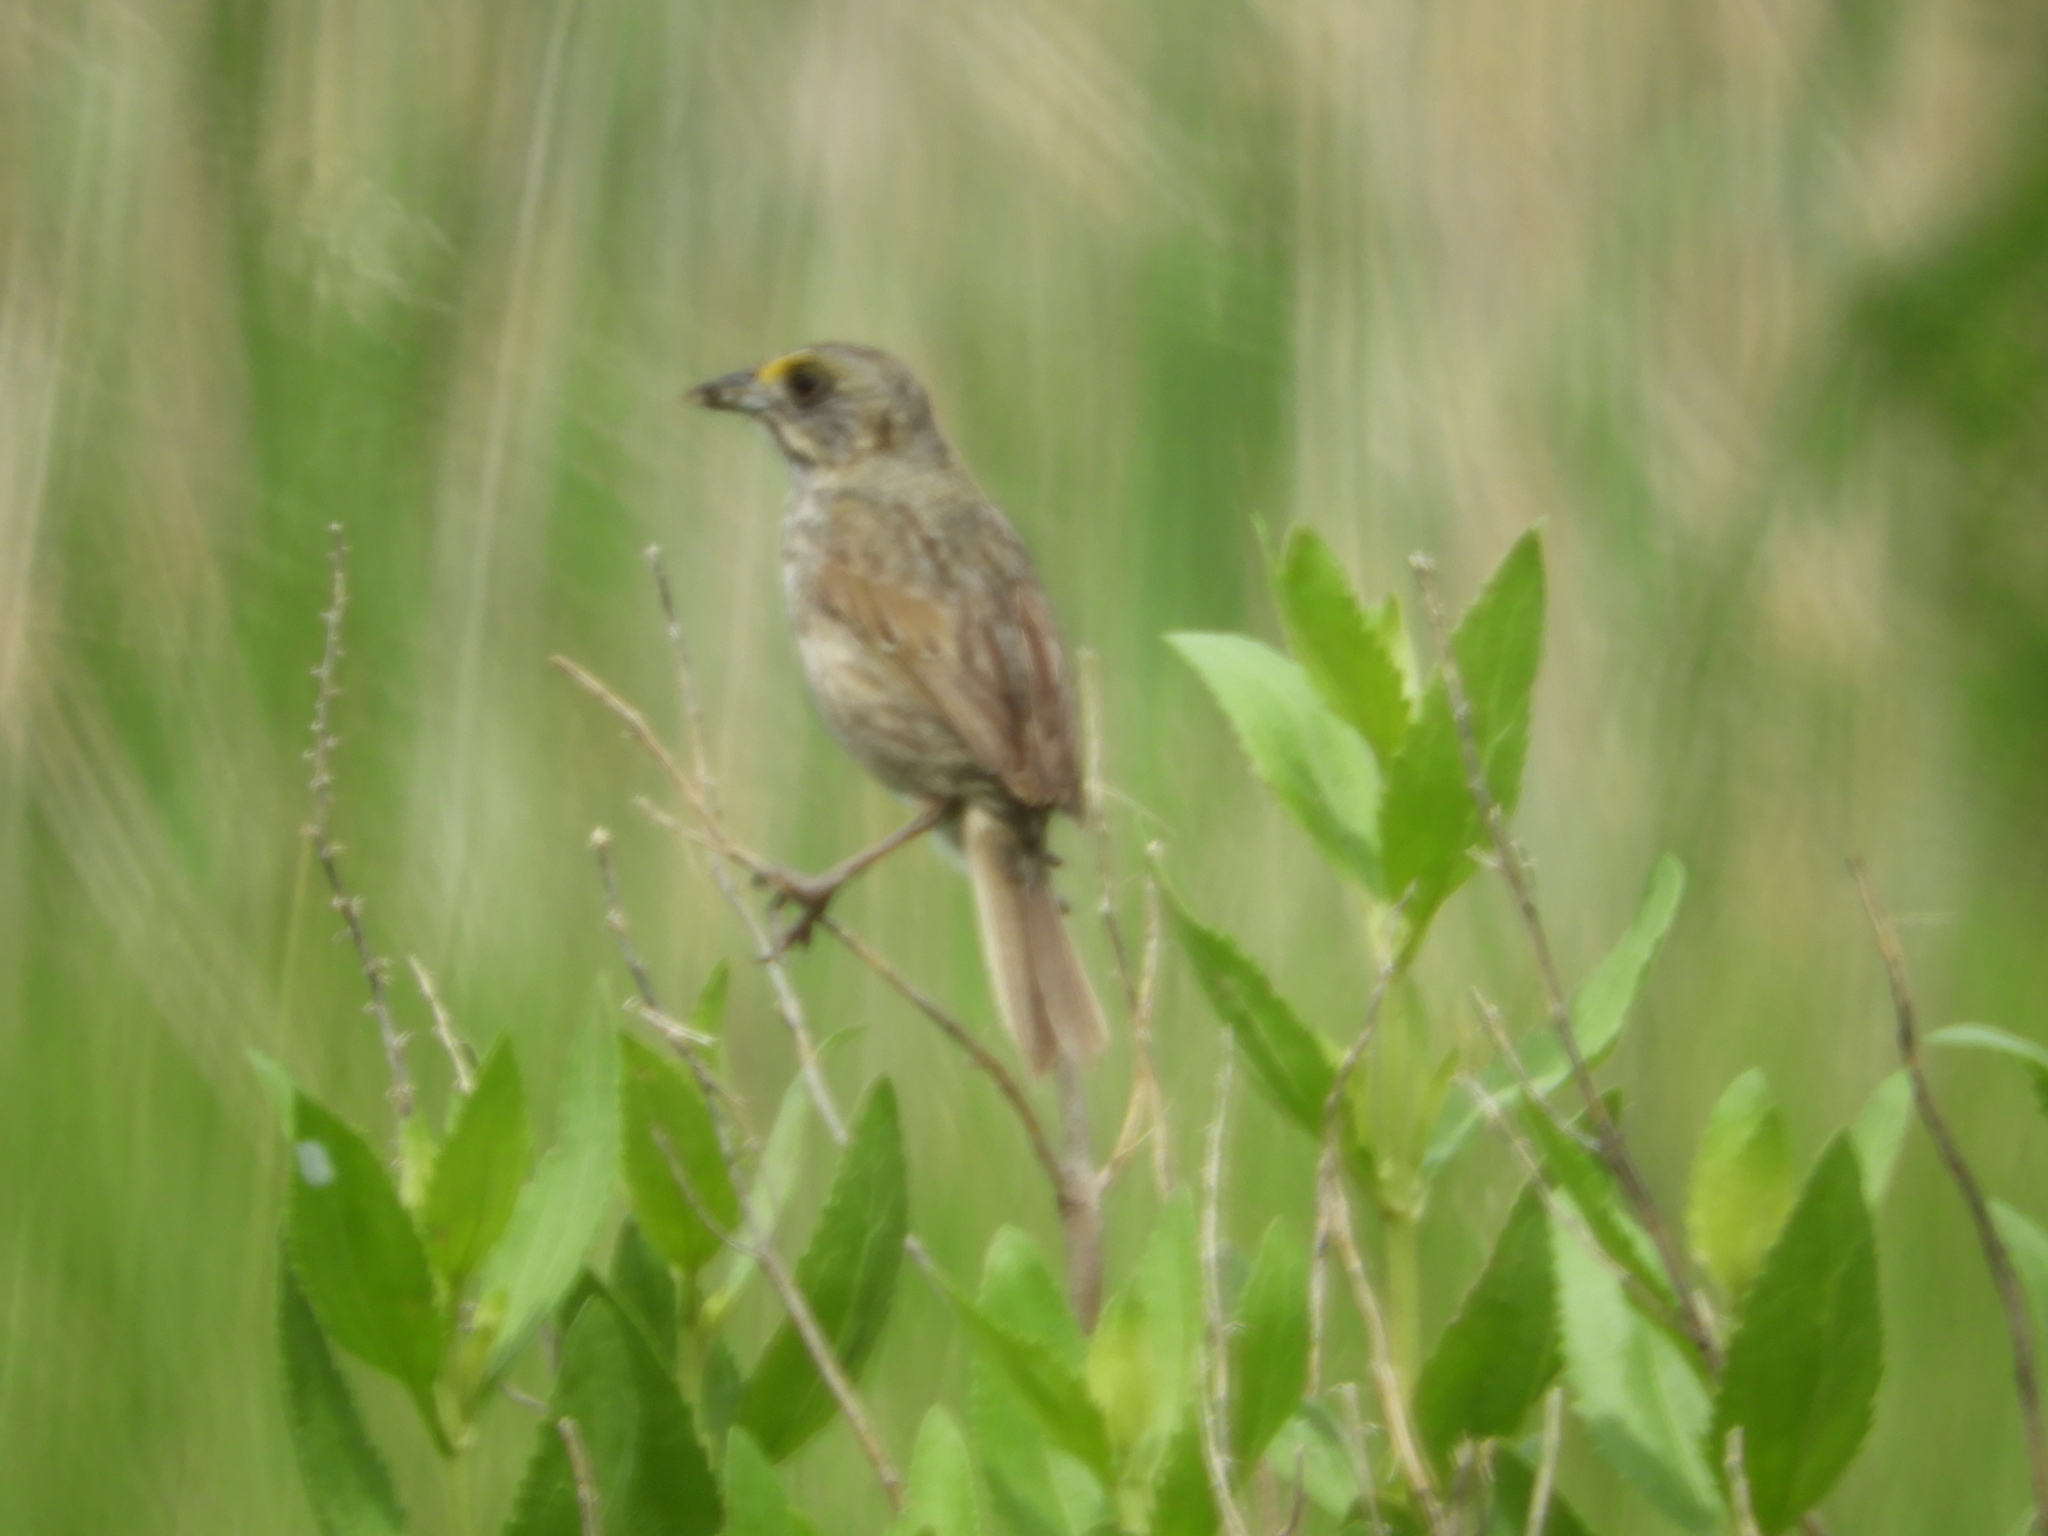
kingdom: Animalia
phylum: Chordata
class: Aves
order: Passeriformes
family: Passerellidae
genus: Ammospiza
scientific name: Ammospiza maritima
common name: Seaside sparrow
